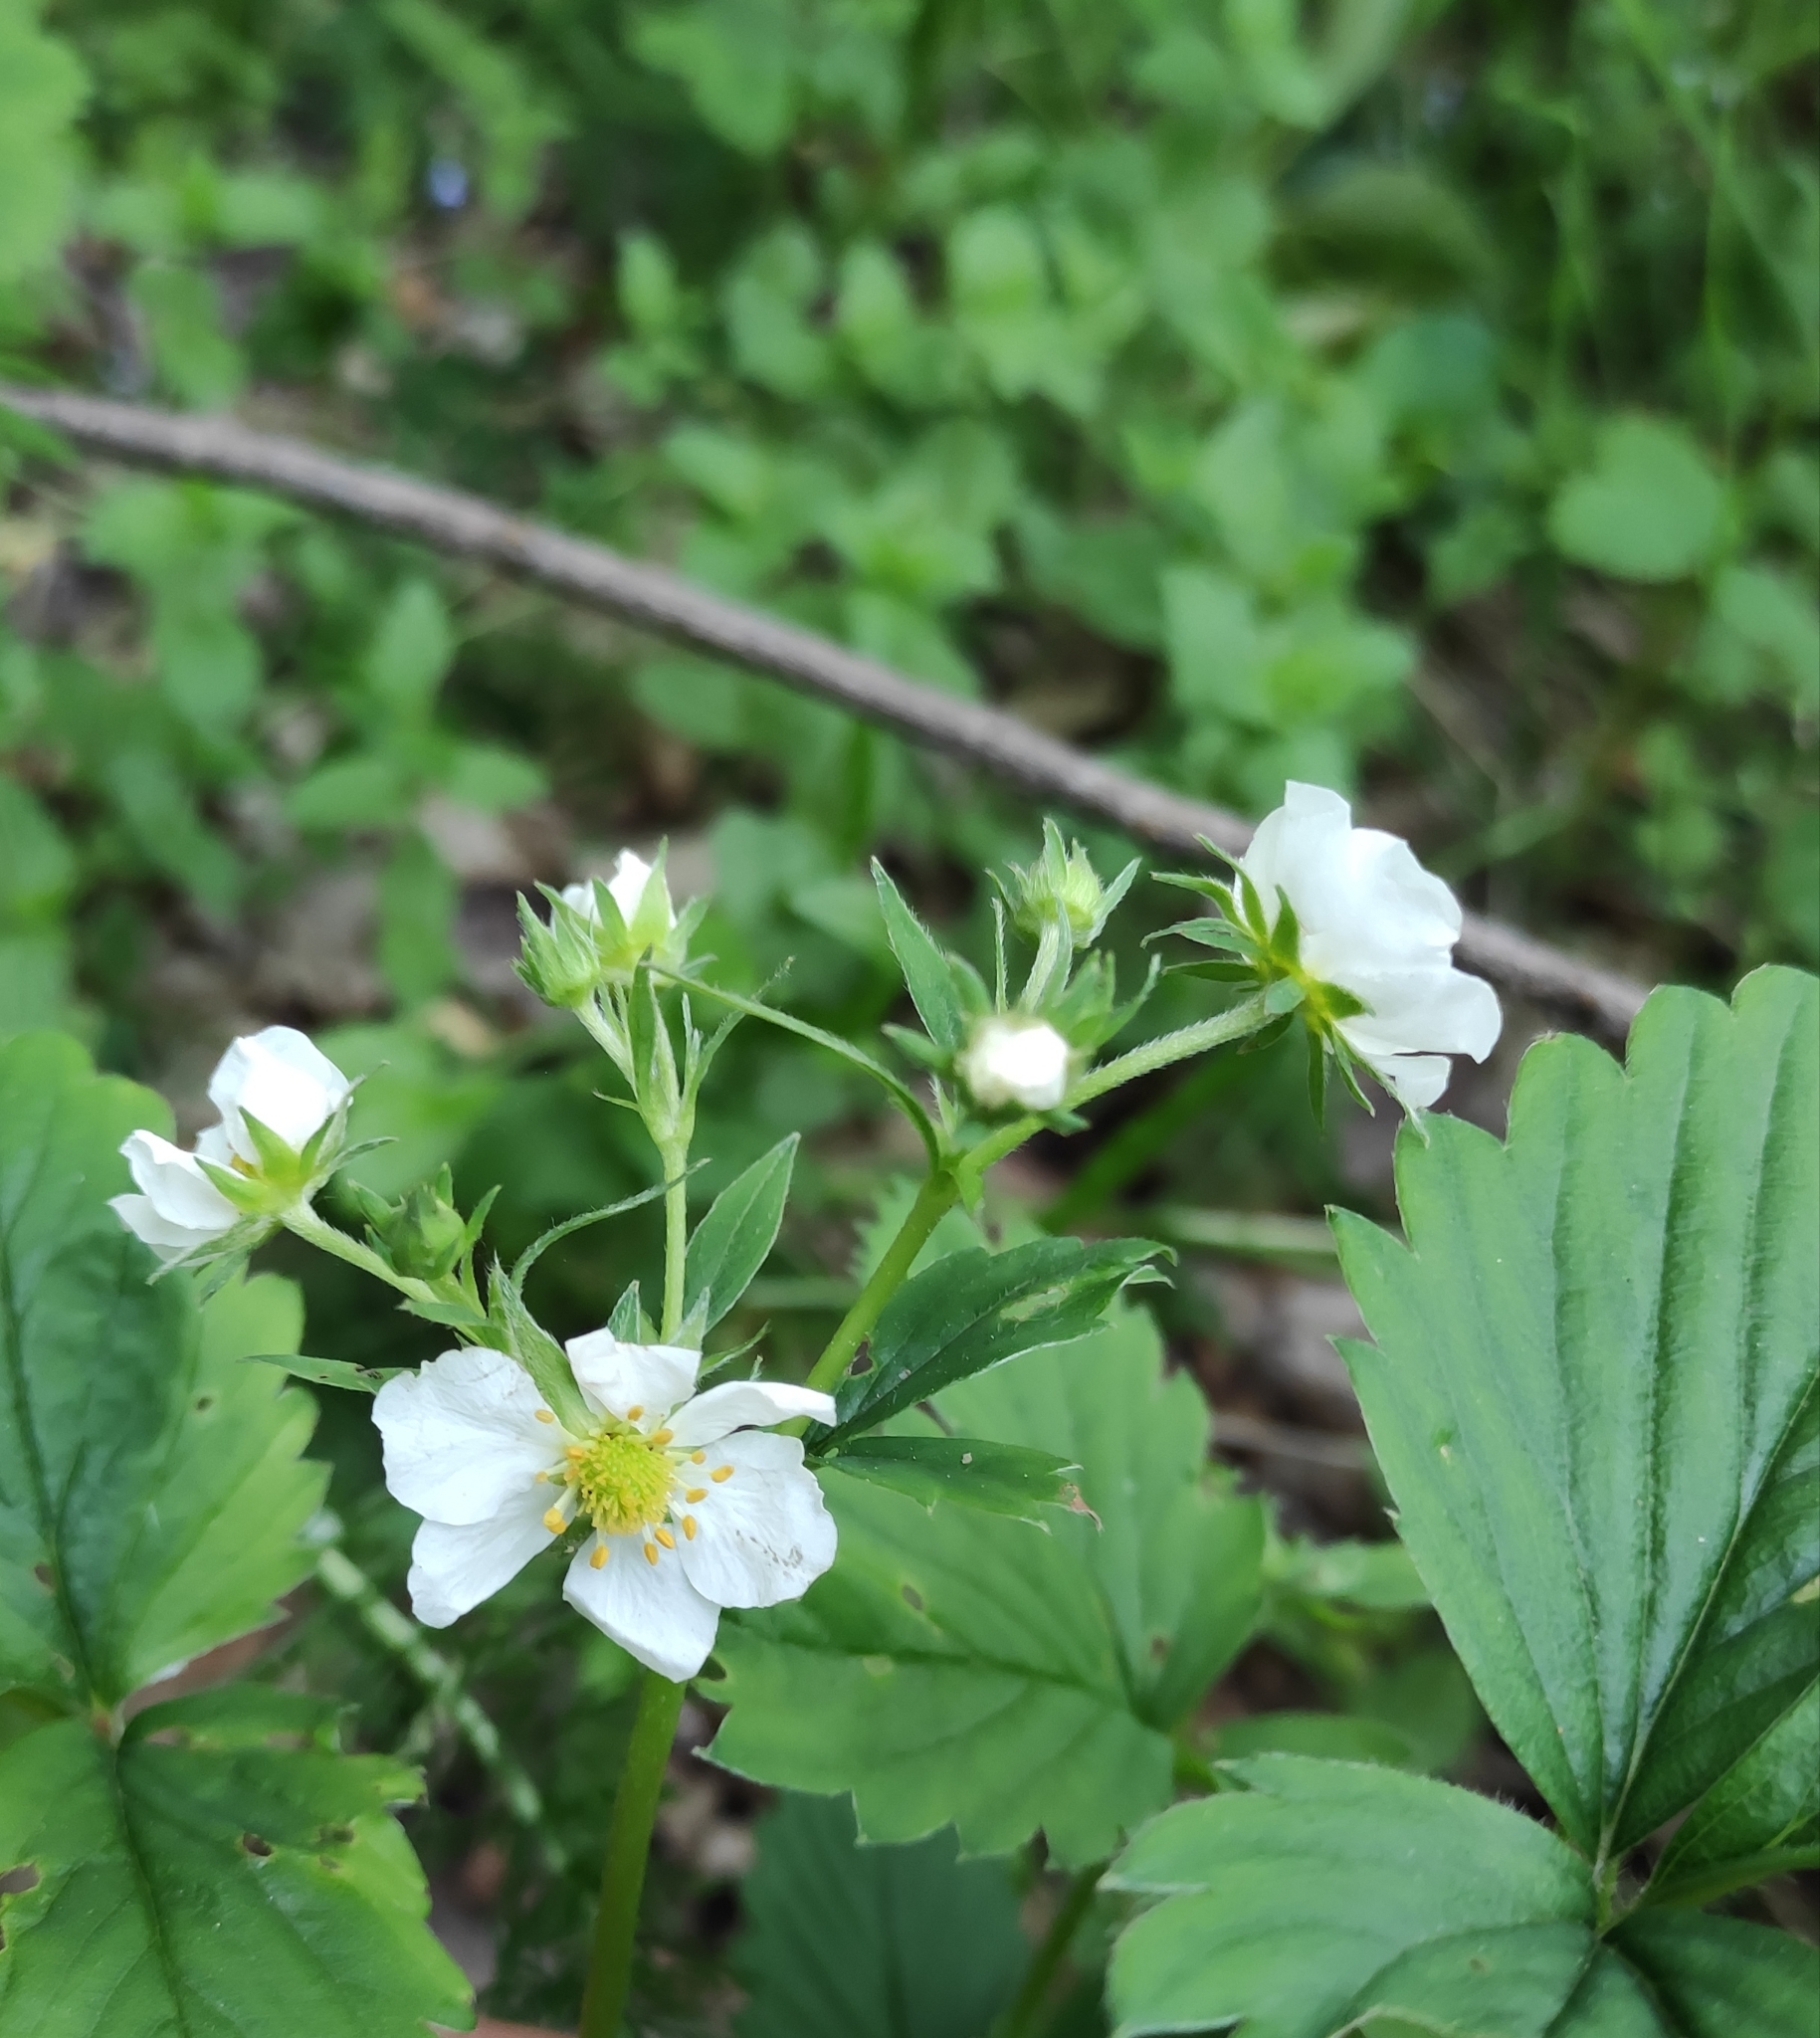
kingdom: Plantae
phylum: Tracheophyta
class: Magnoliopsida
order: Rosales
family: Rosaceae
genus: Fragaria
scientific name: Fragaria ananassa
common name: Garden strawberry
